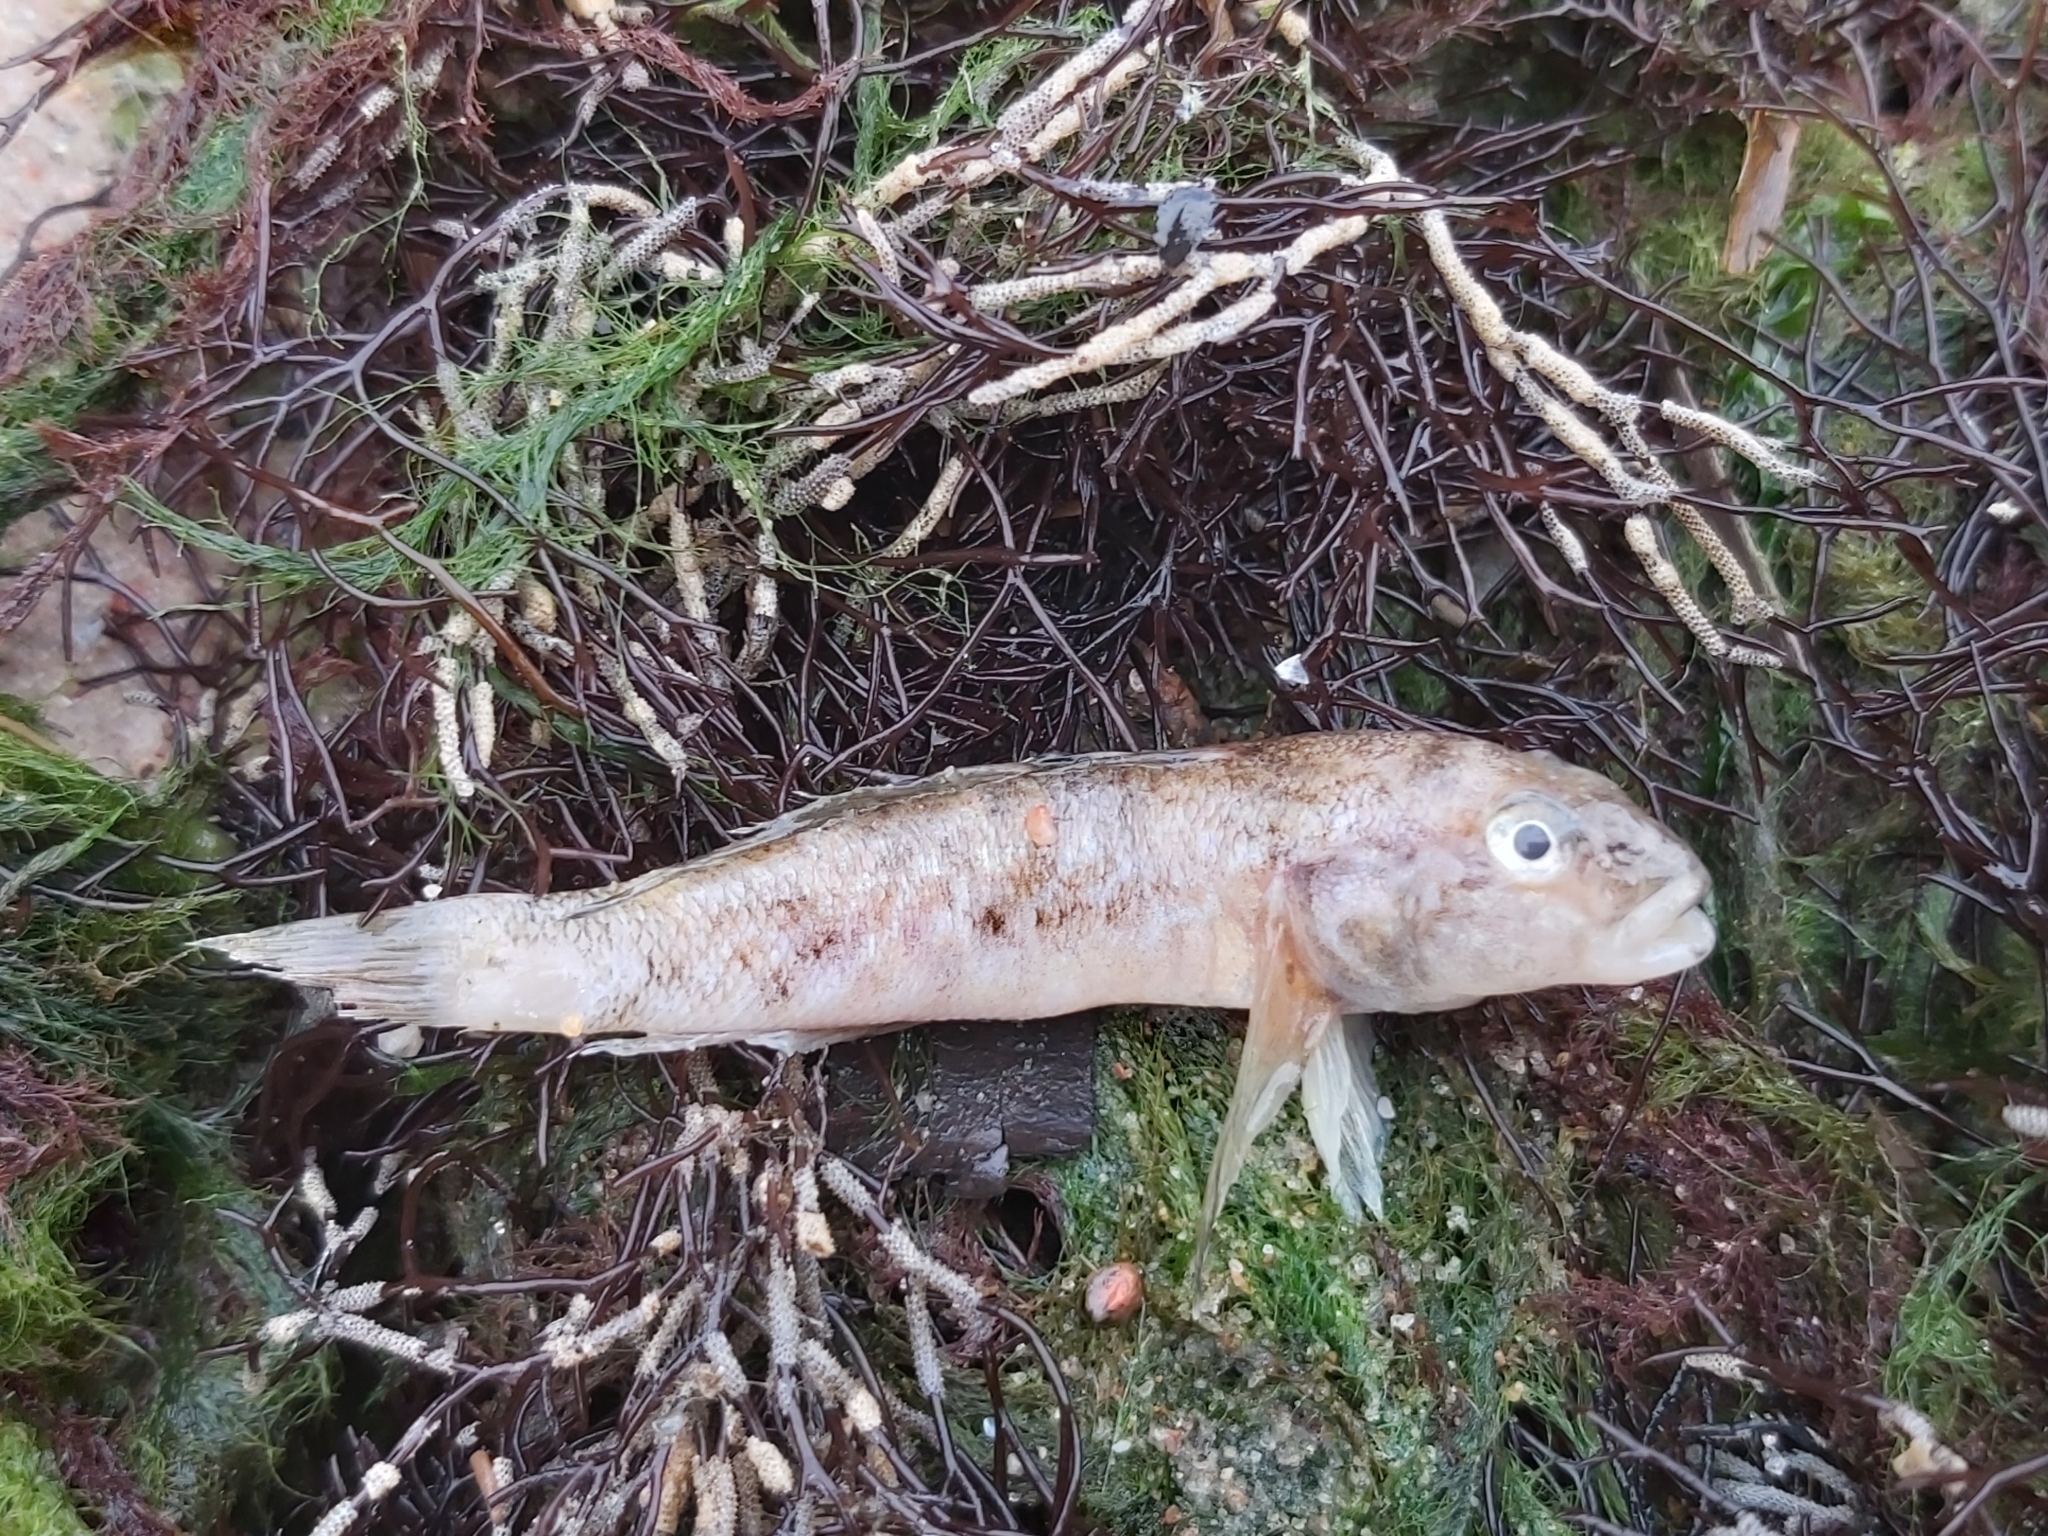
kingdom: Animalia
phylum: Chordata
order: Perciformes
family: Gobiidae
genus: Neogobius
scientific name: Neogobius melanostomus
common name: Round goby
